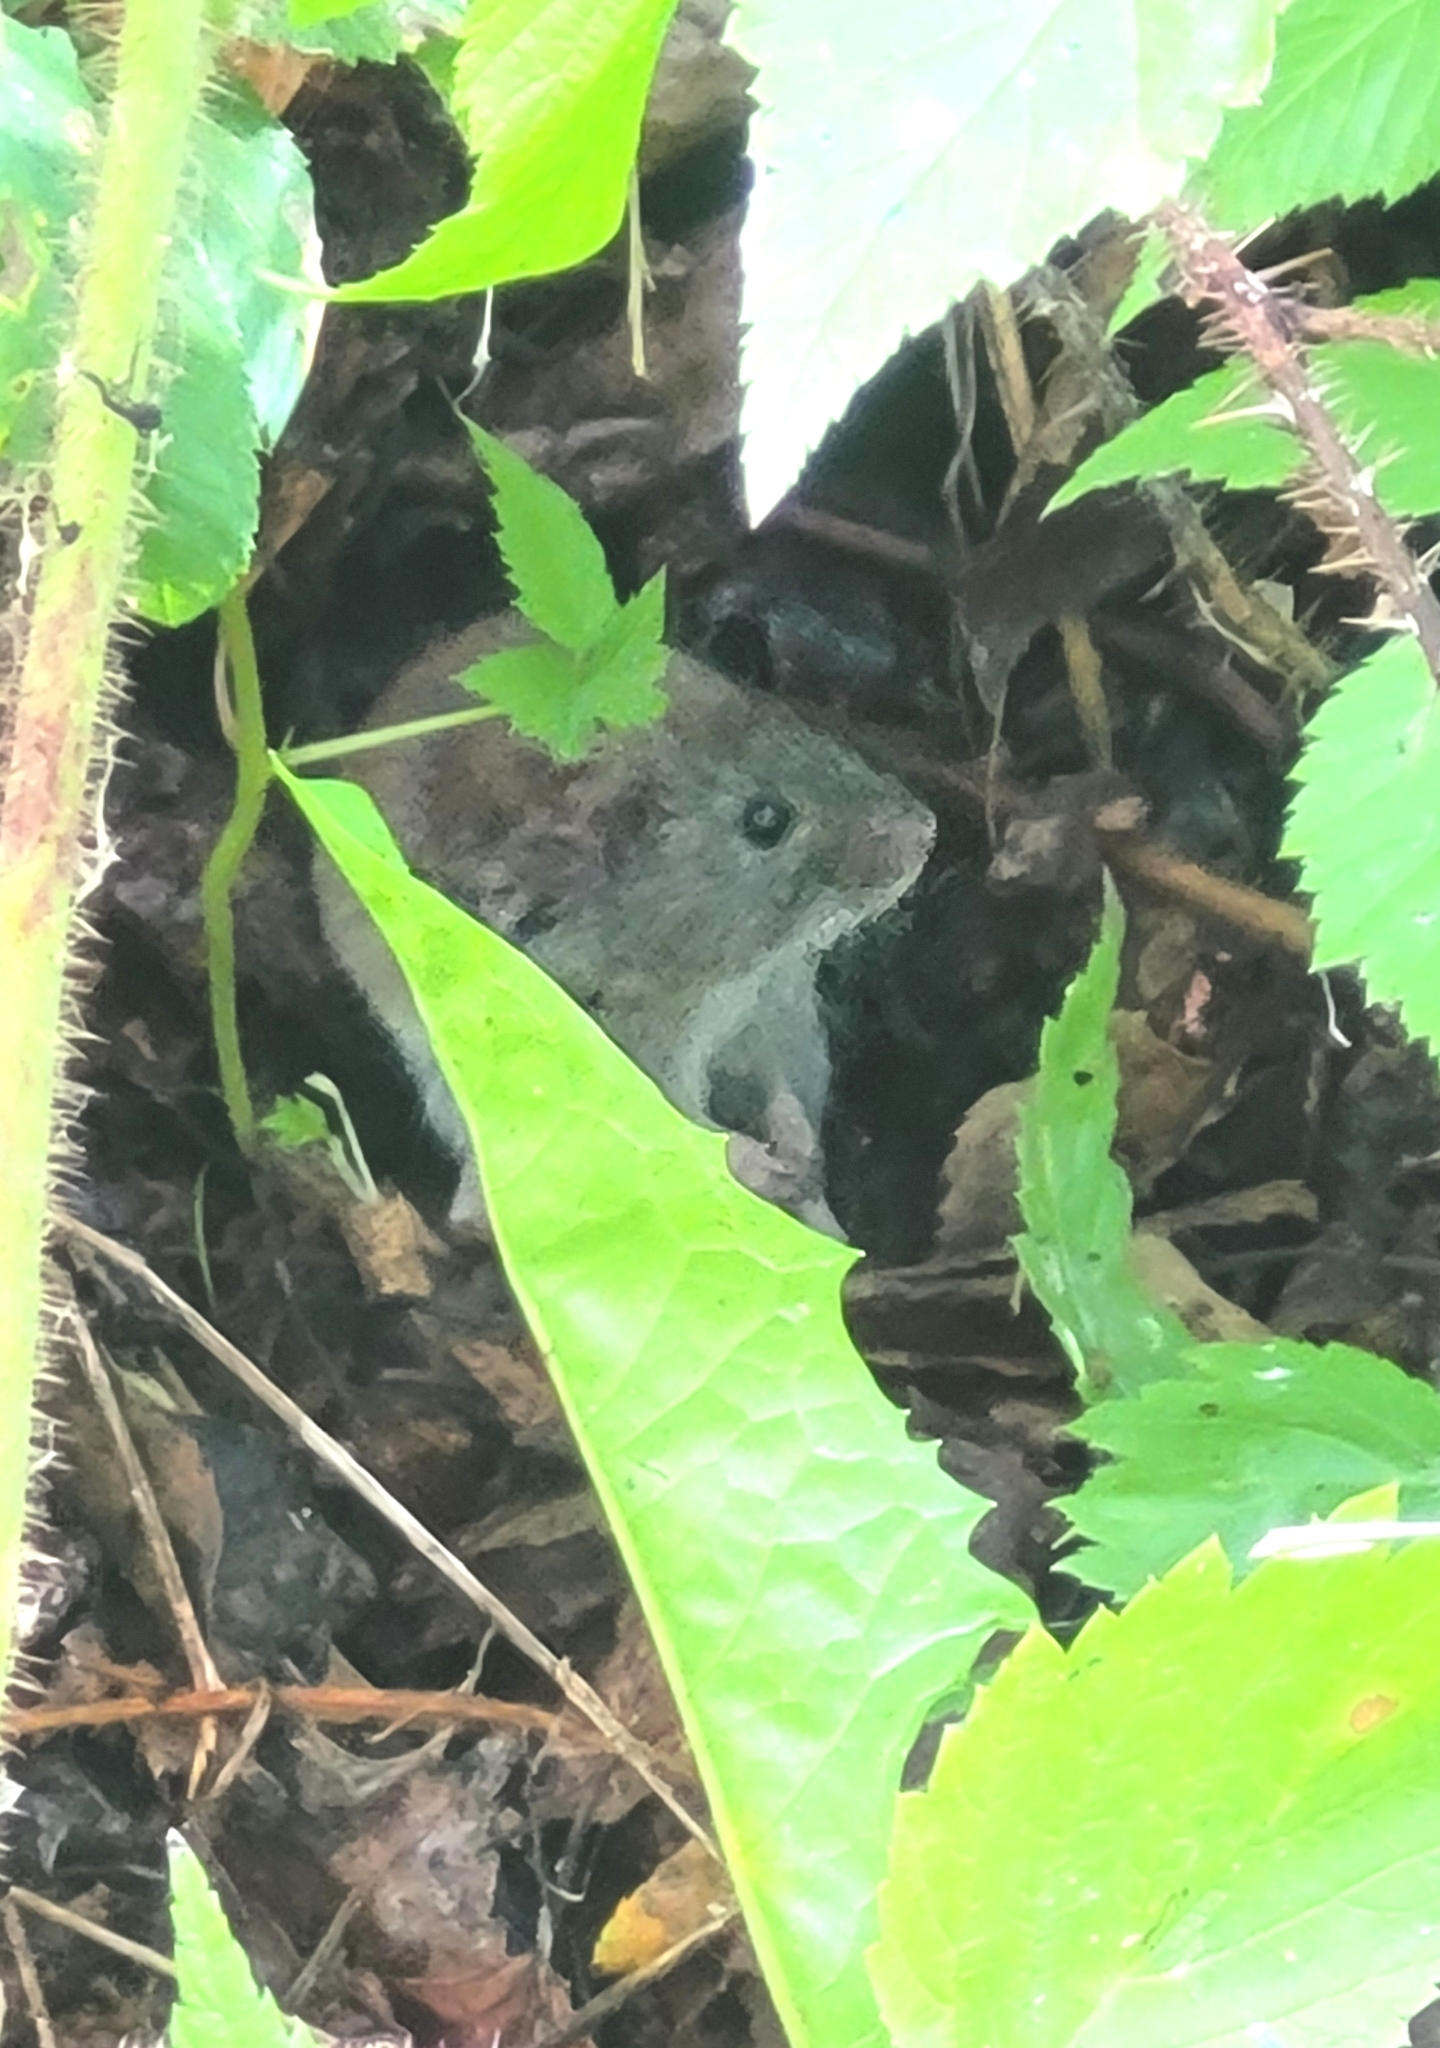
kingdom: Animalia
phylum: Chordata
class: Mammalia
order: Rodentia
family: Cricetidae
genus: Myodes
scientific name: Myodes gapperi
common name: Southern red-backed vole
